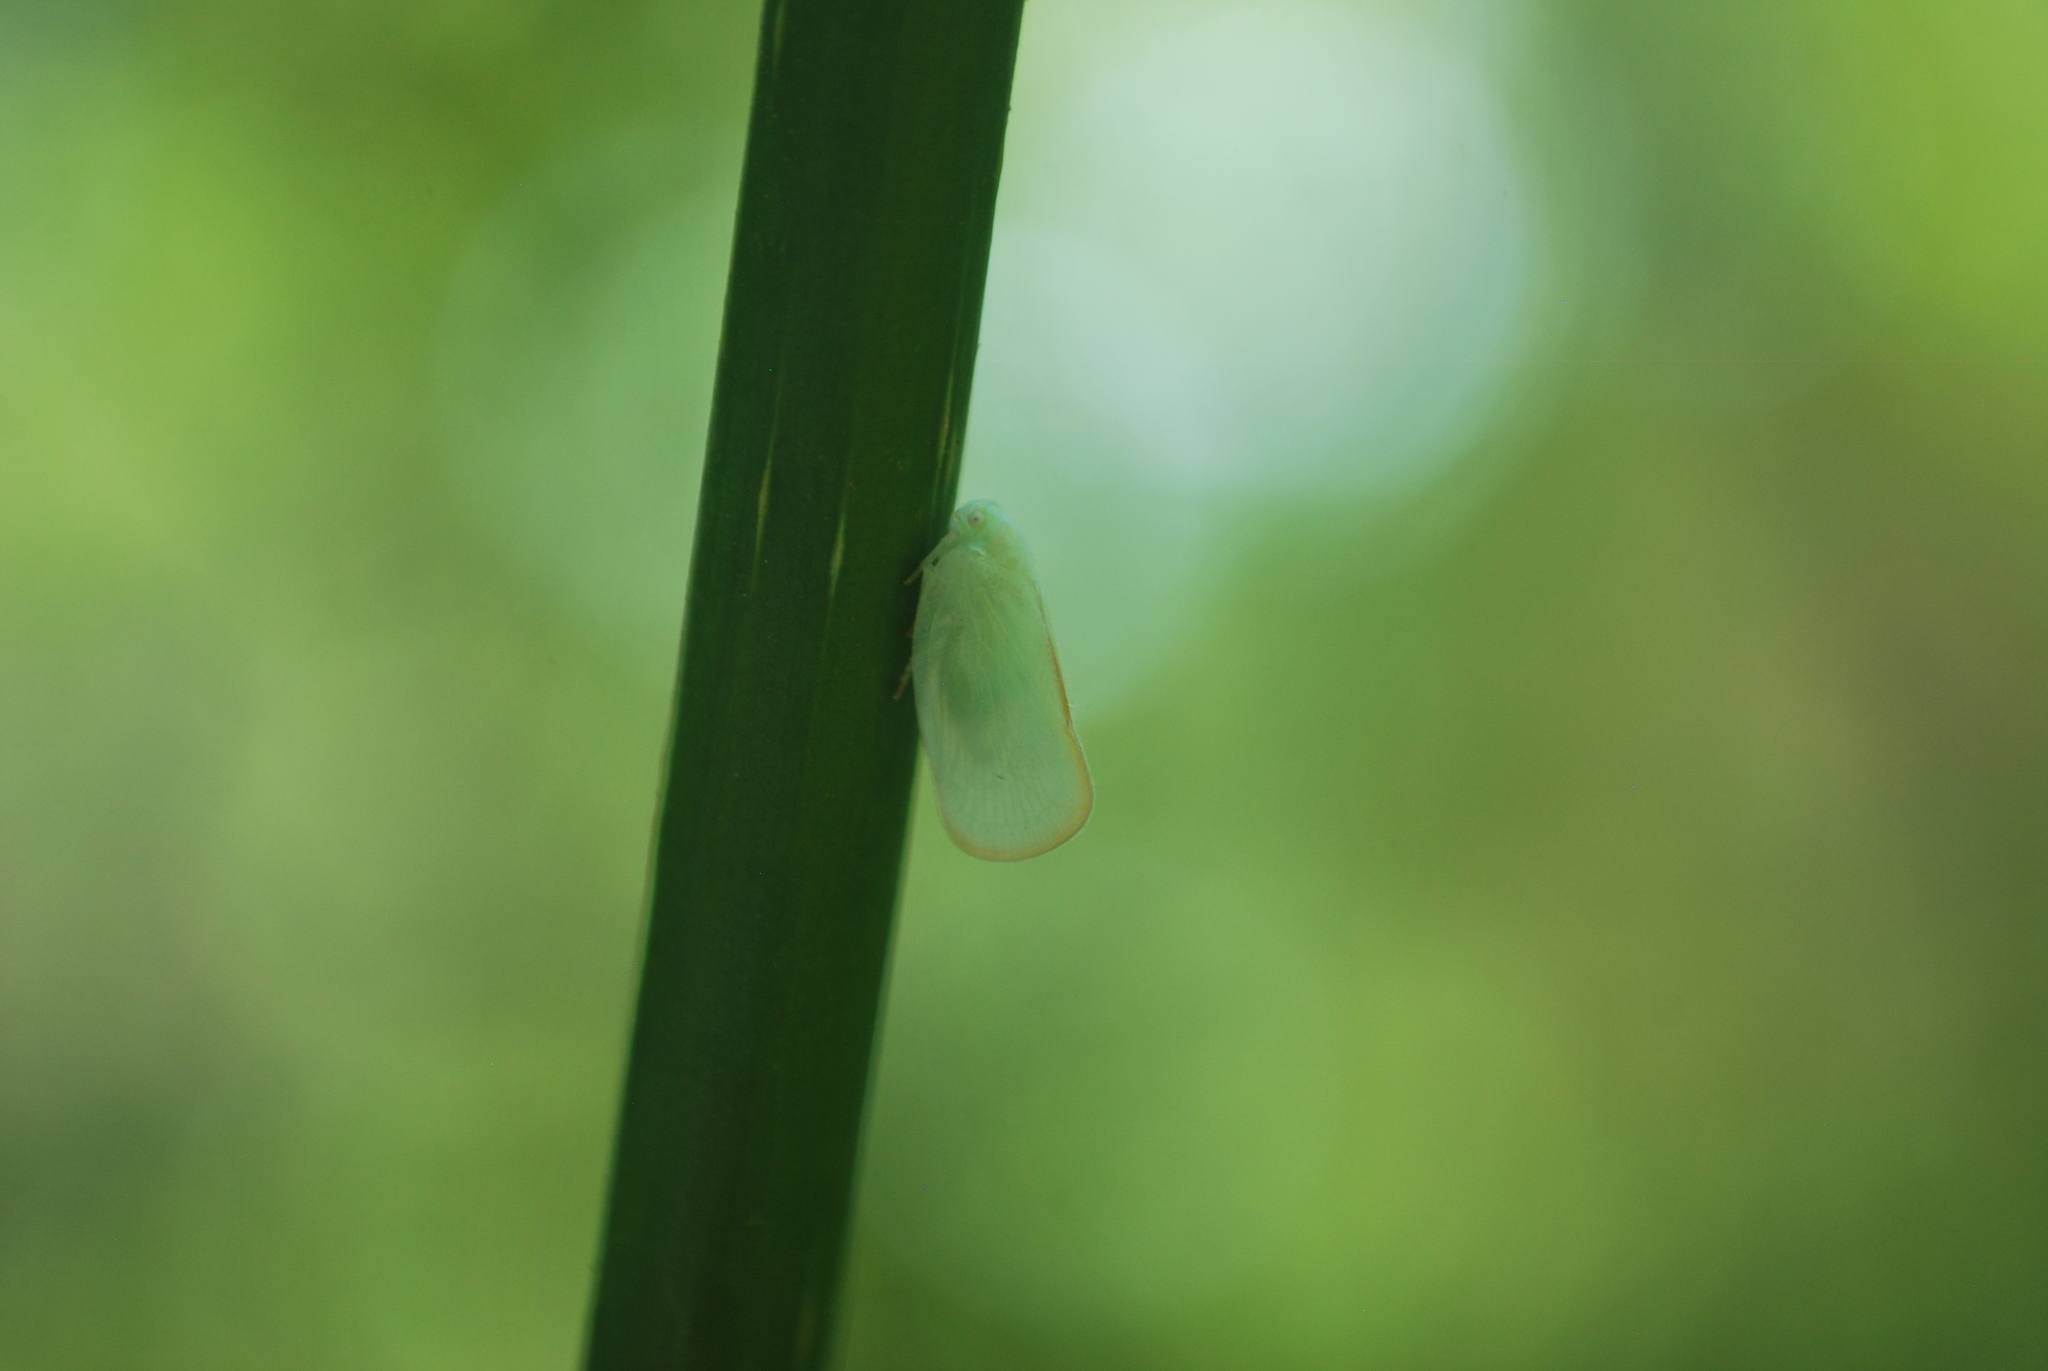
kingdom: Animalia
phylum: Arthropoda
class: Insecta
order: Hemiptera
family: Flatidae
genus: Ormenoides
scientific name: Ormenoides venusta
